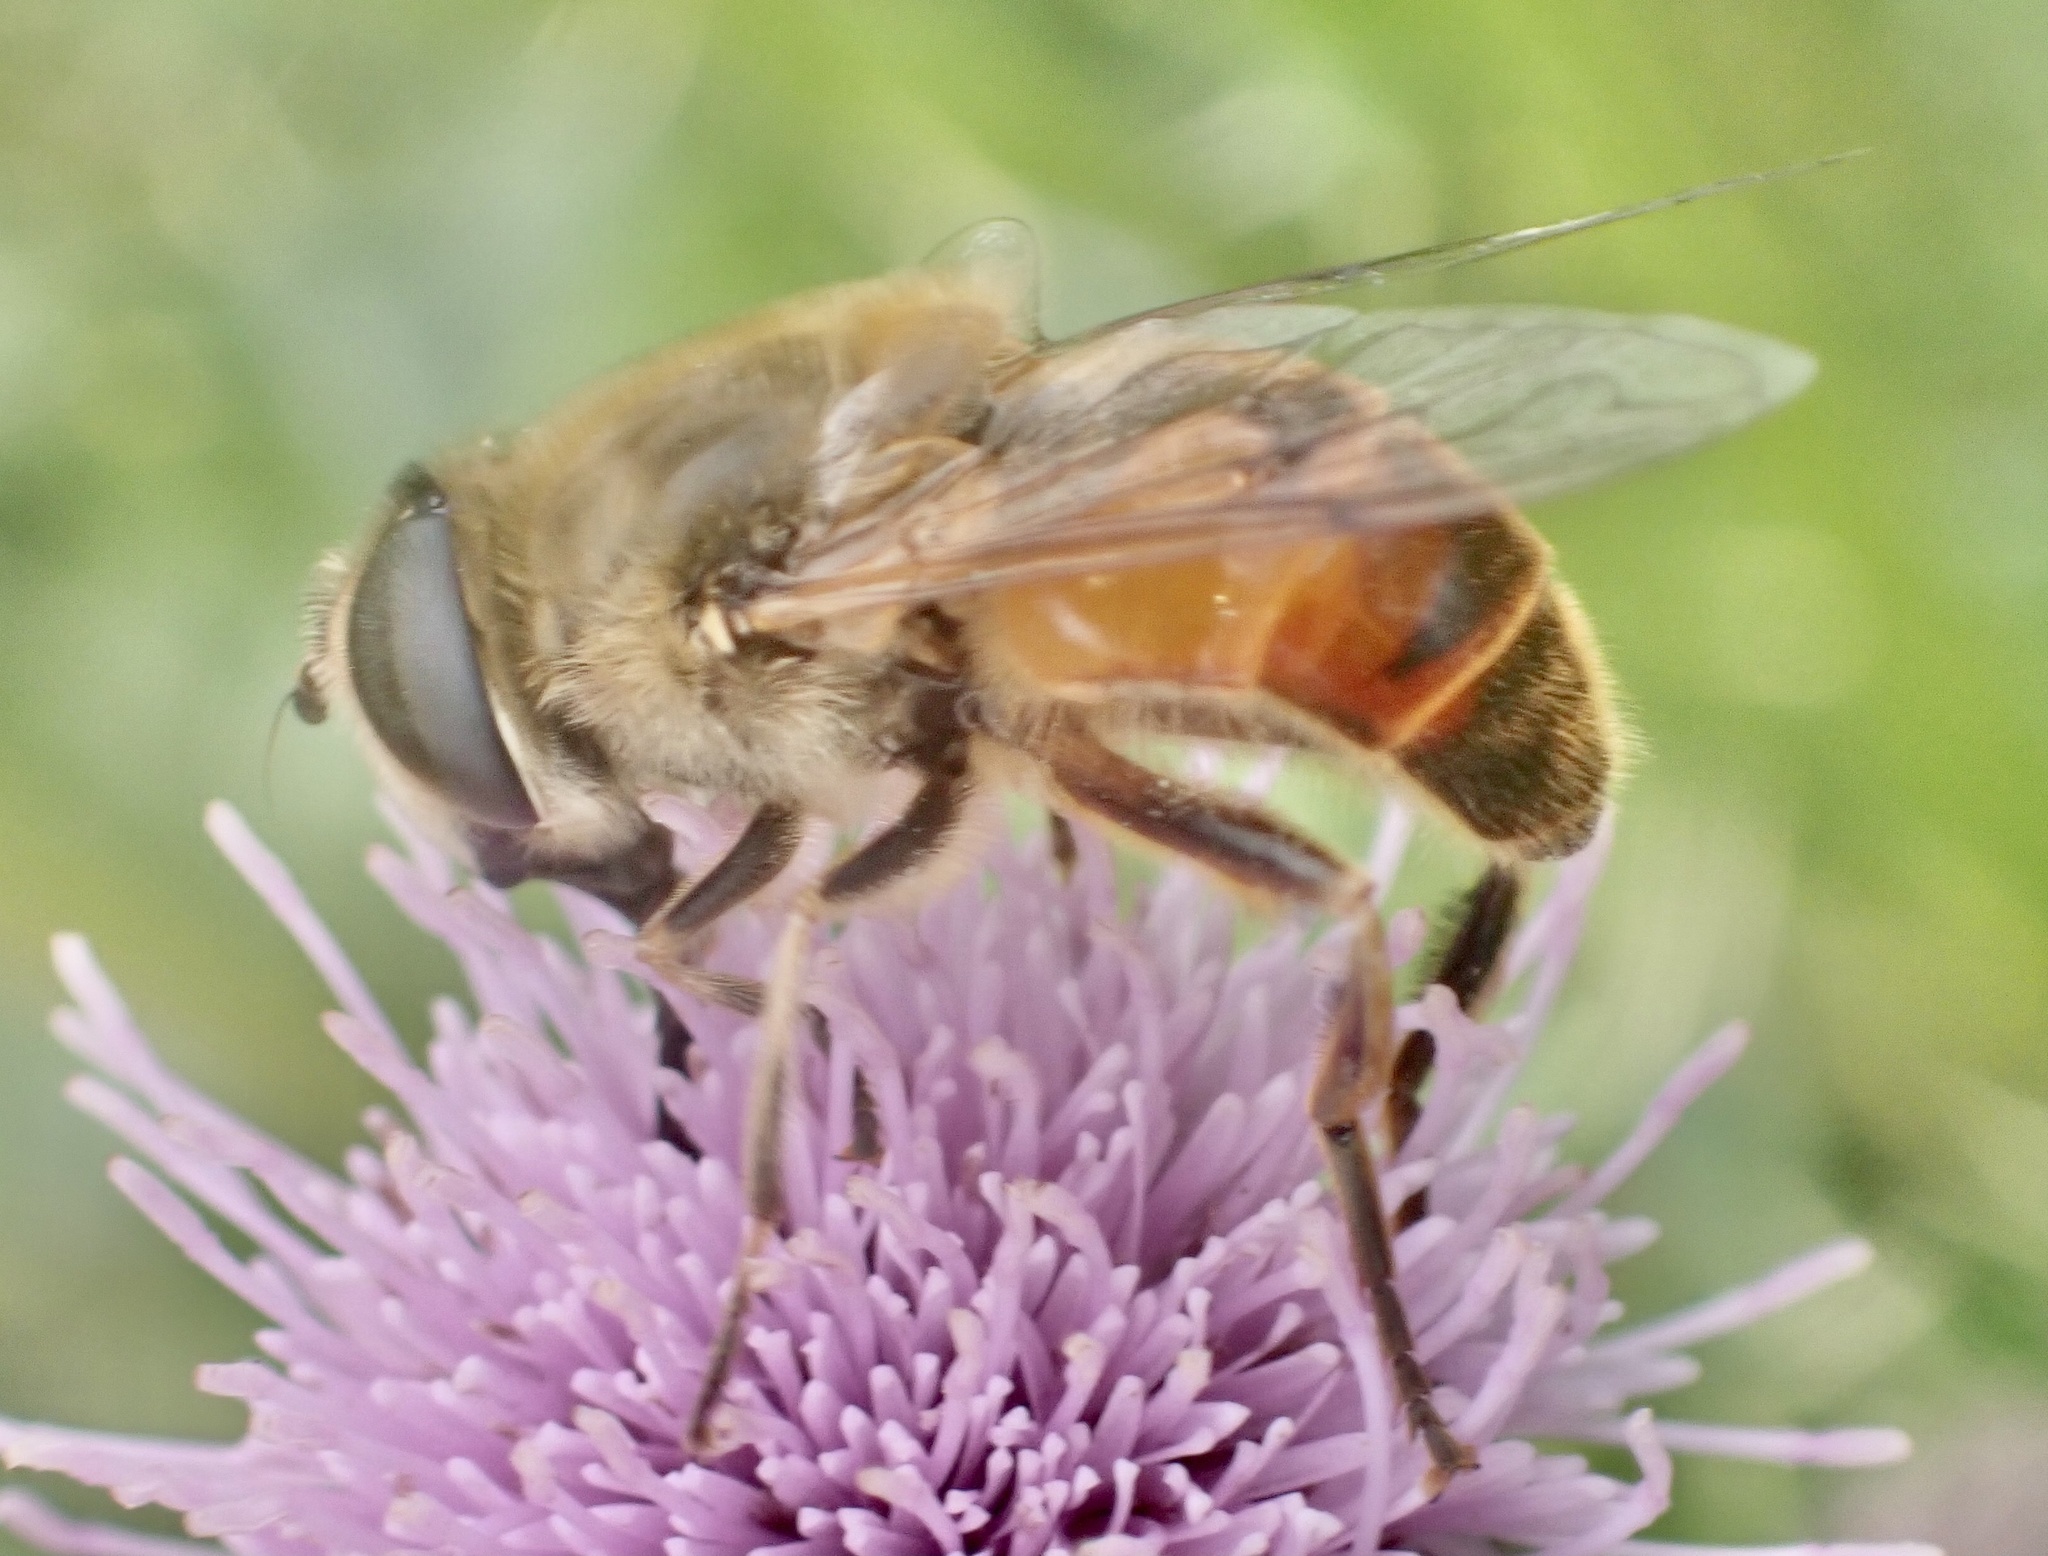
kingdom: Animalia
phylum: Arthropoda
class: Insecta
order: Diptera
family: Syrphidae
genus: Eristalis
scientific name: Eristalis tenax
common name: Drone fly
